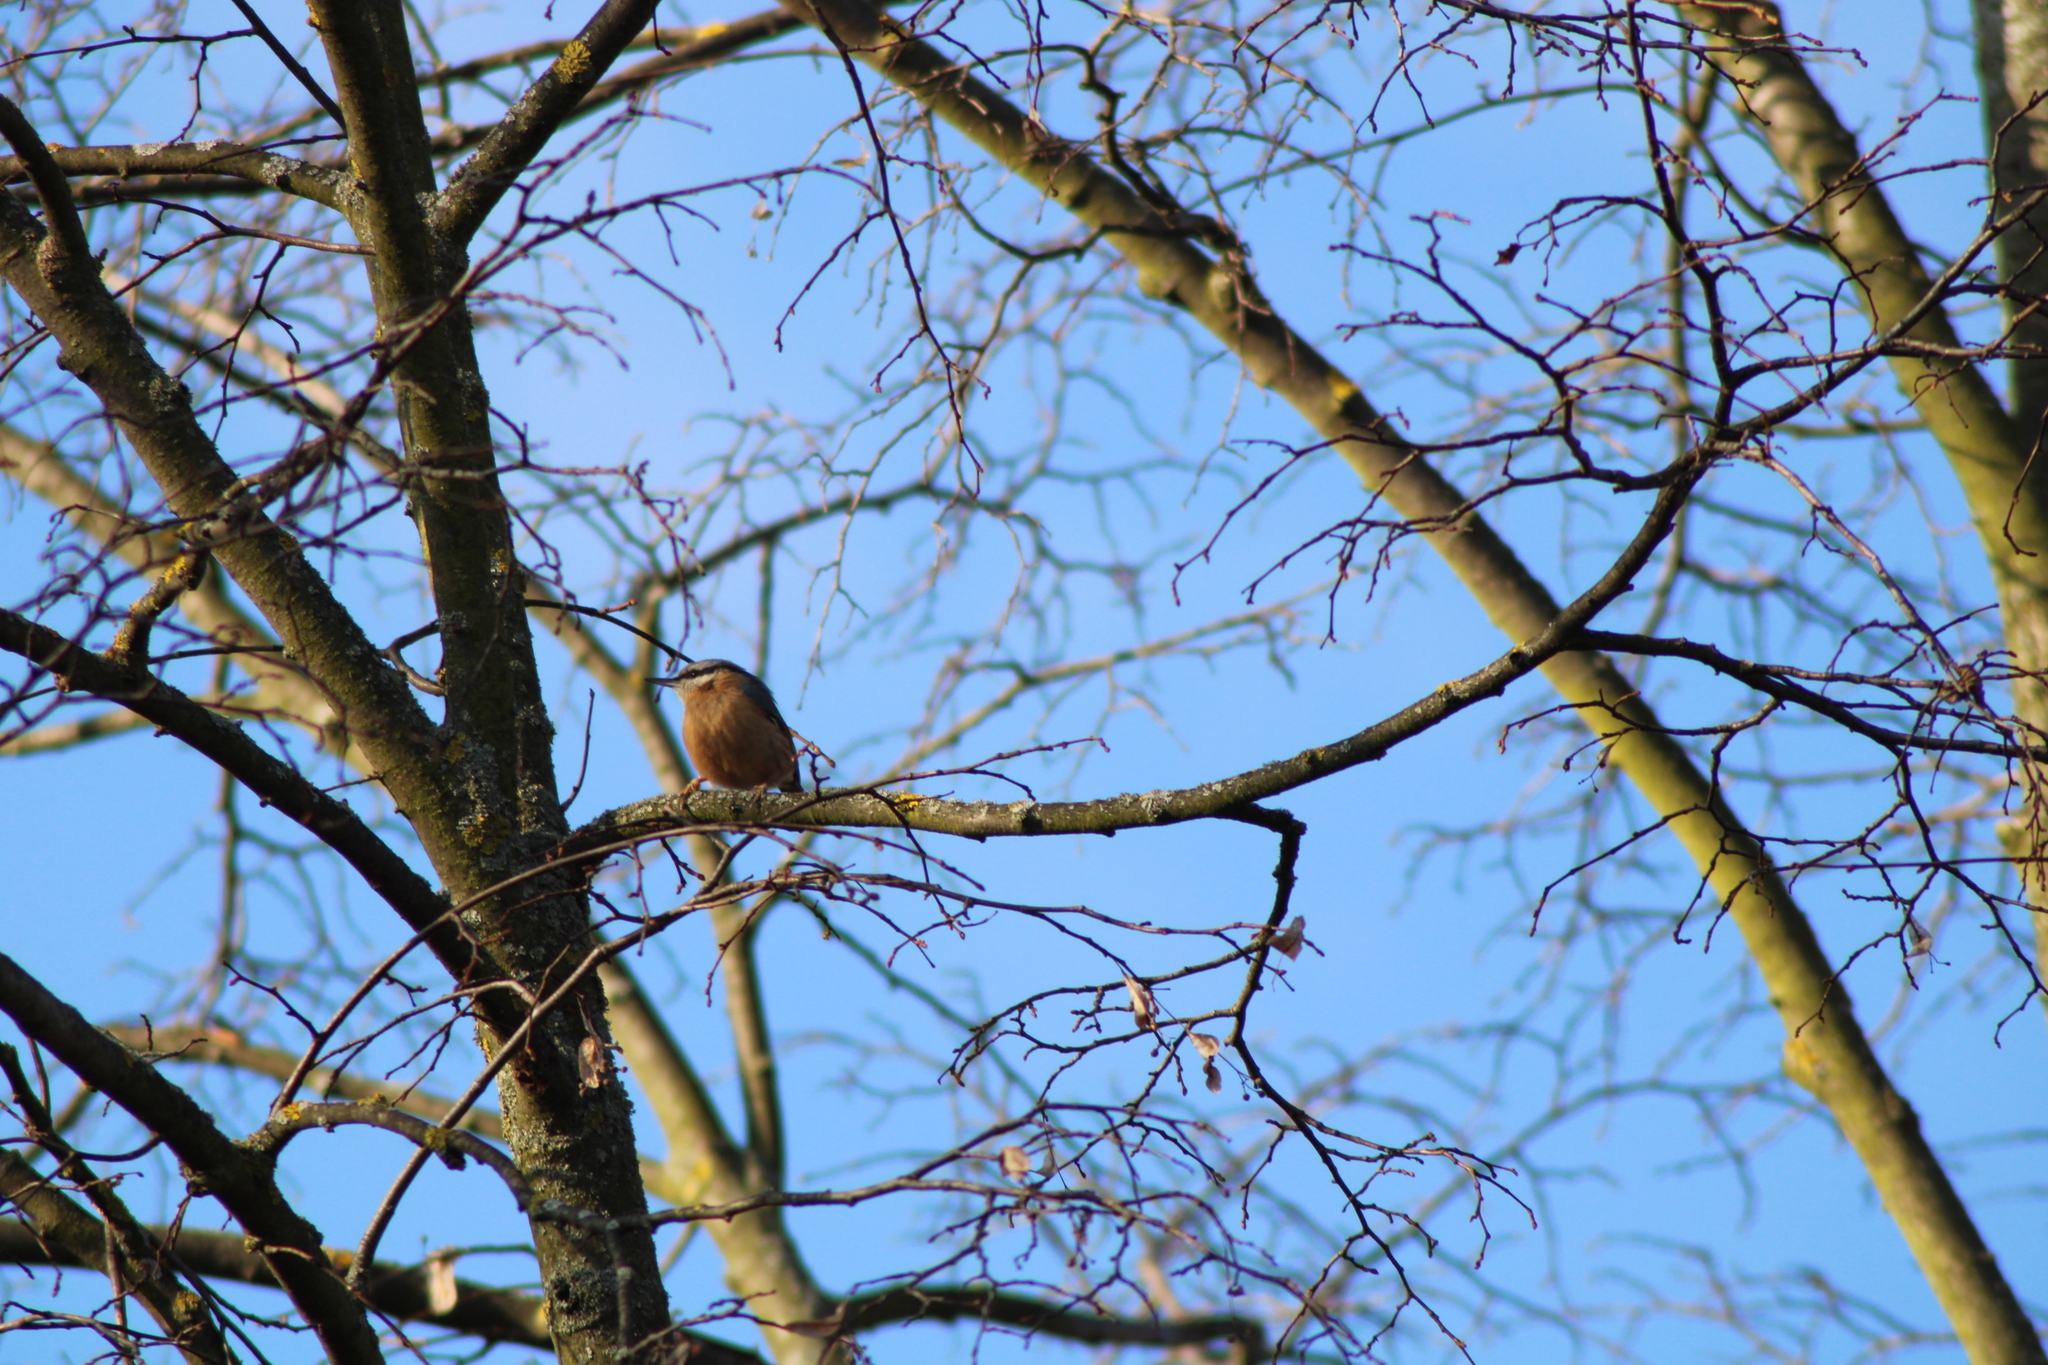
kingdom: Animalia
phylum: Chordata
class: Aves
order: Passeriformes
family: Sittidae
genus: Sitta
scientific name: Sitta europaea
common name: Eurasian nuthatch
